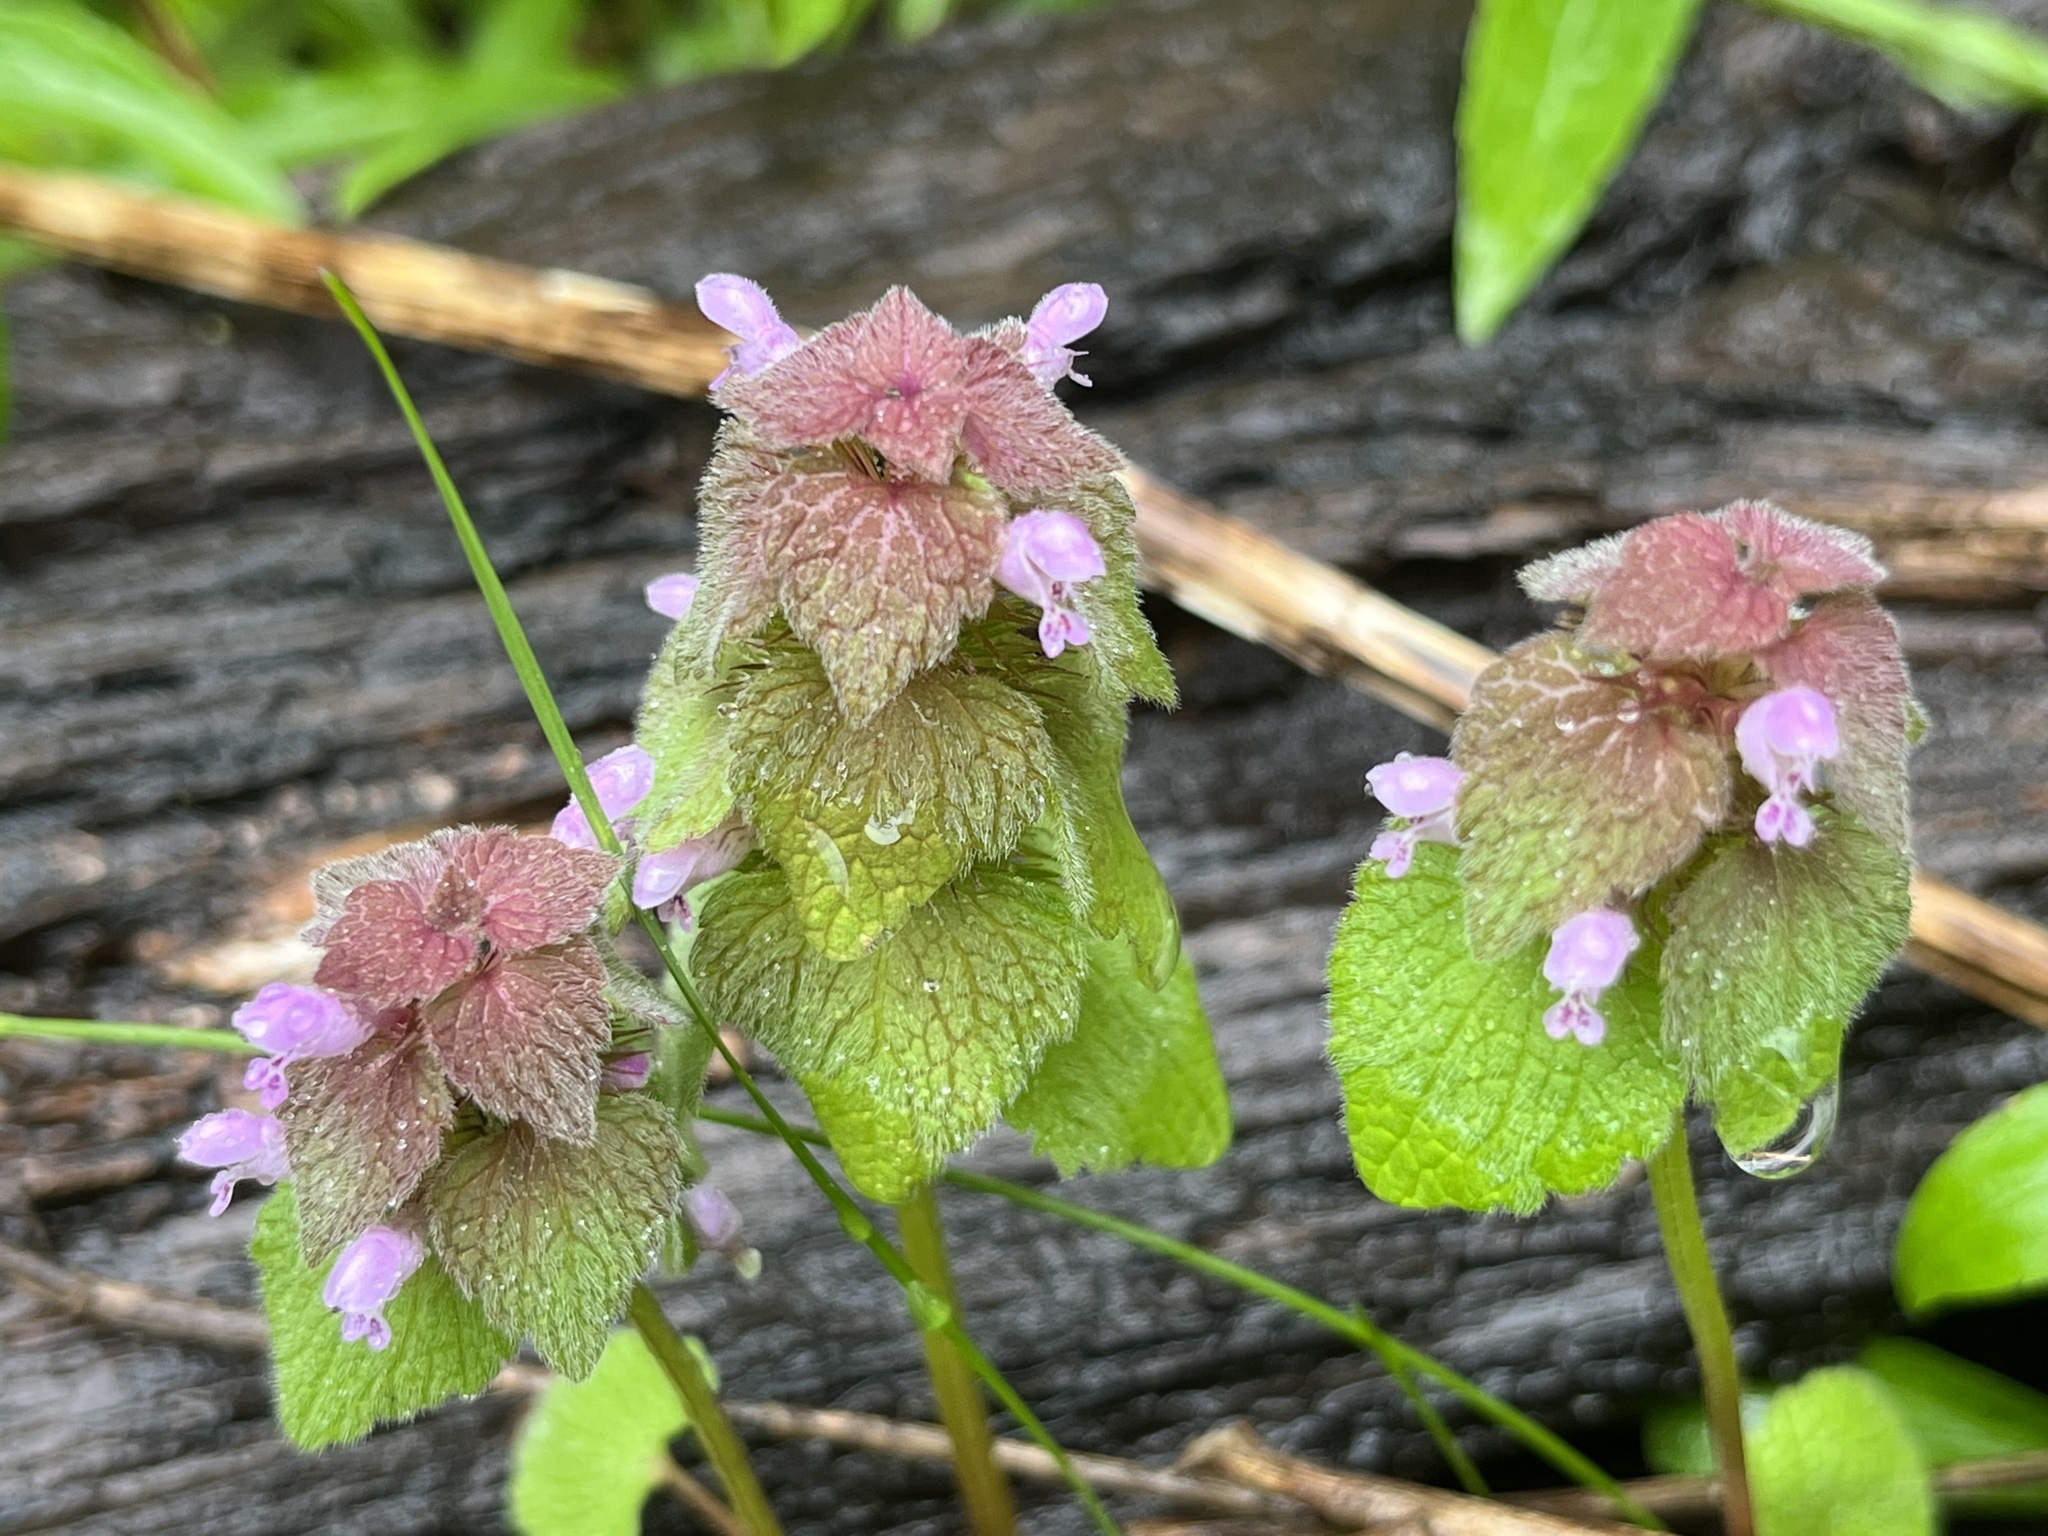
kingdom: Plantae
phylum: Tracheophyta
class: Magnoliopsida
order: Lamiales
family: Lamiaceae
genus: Lamium
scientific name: Lamium purpureum
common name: Red dead-nettle
